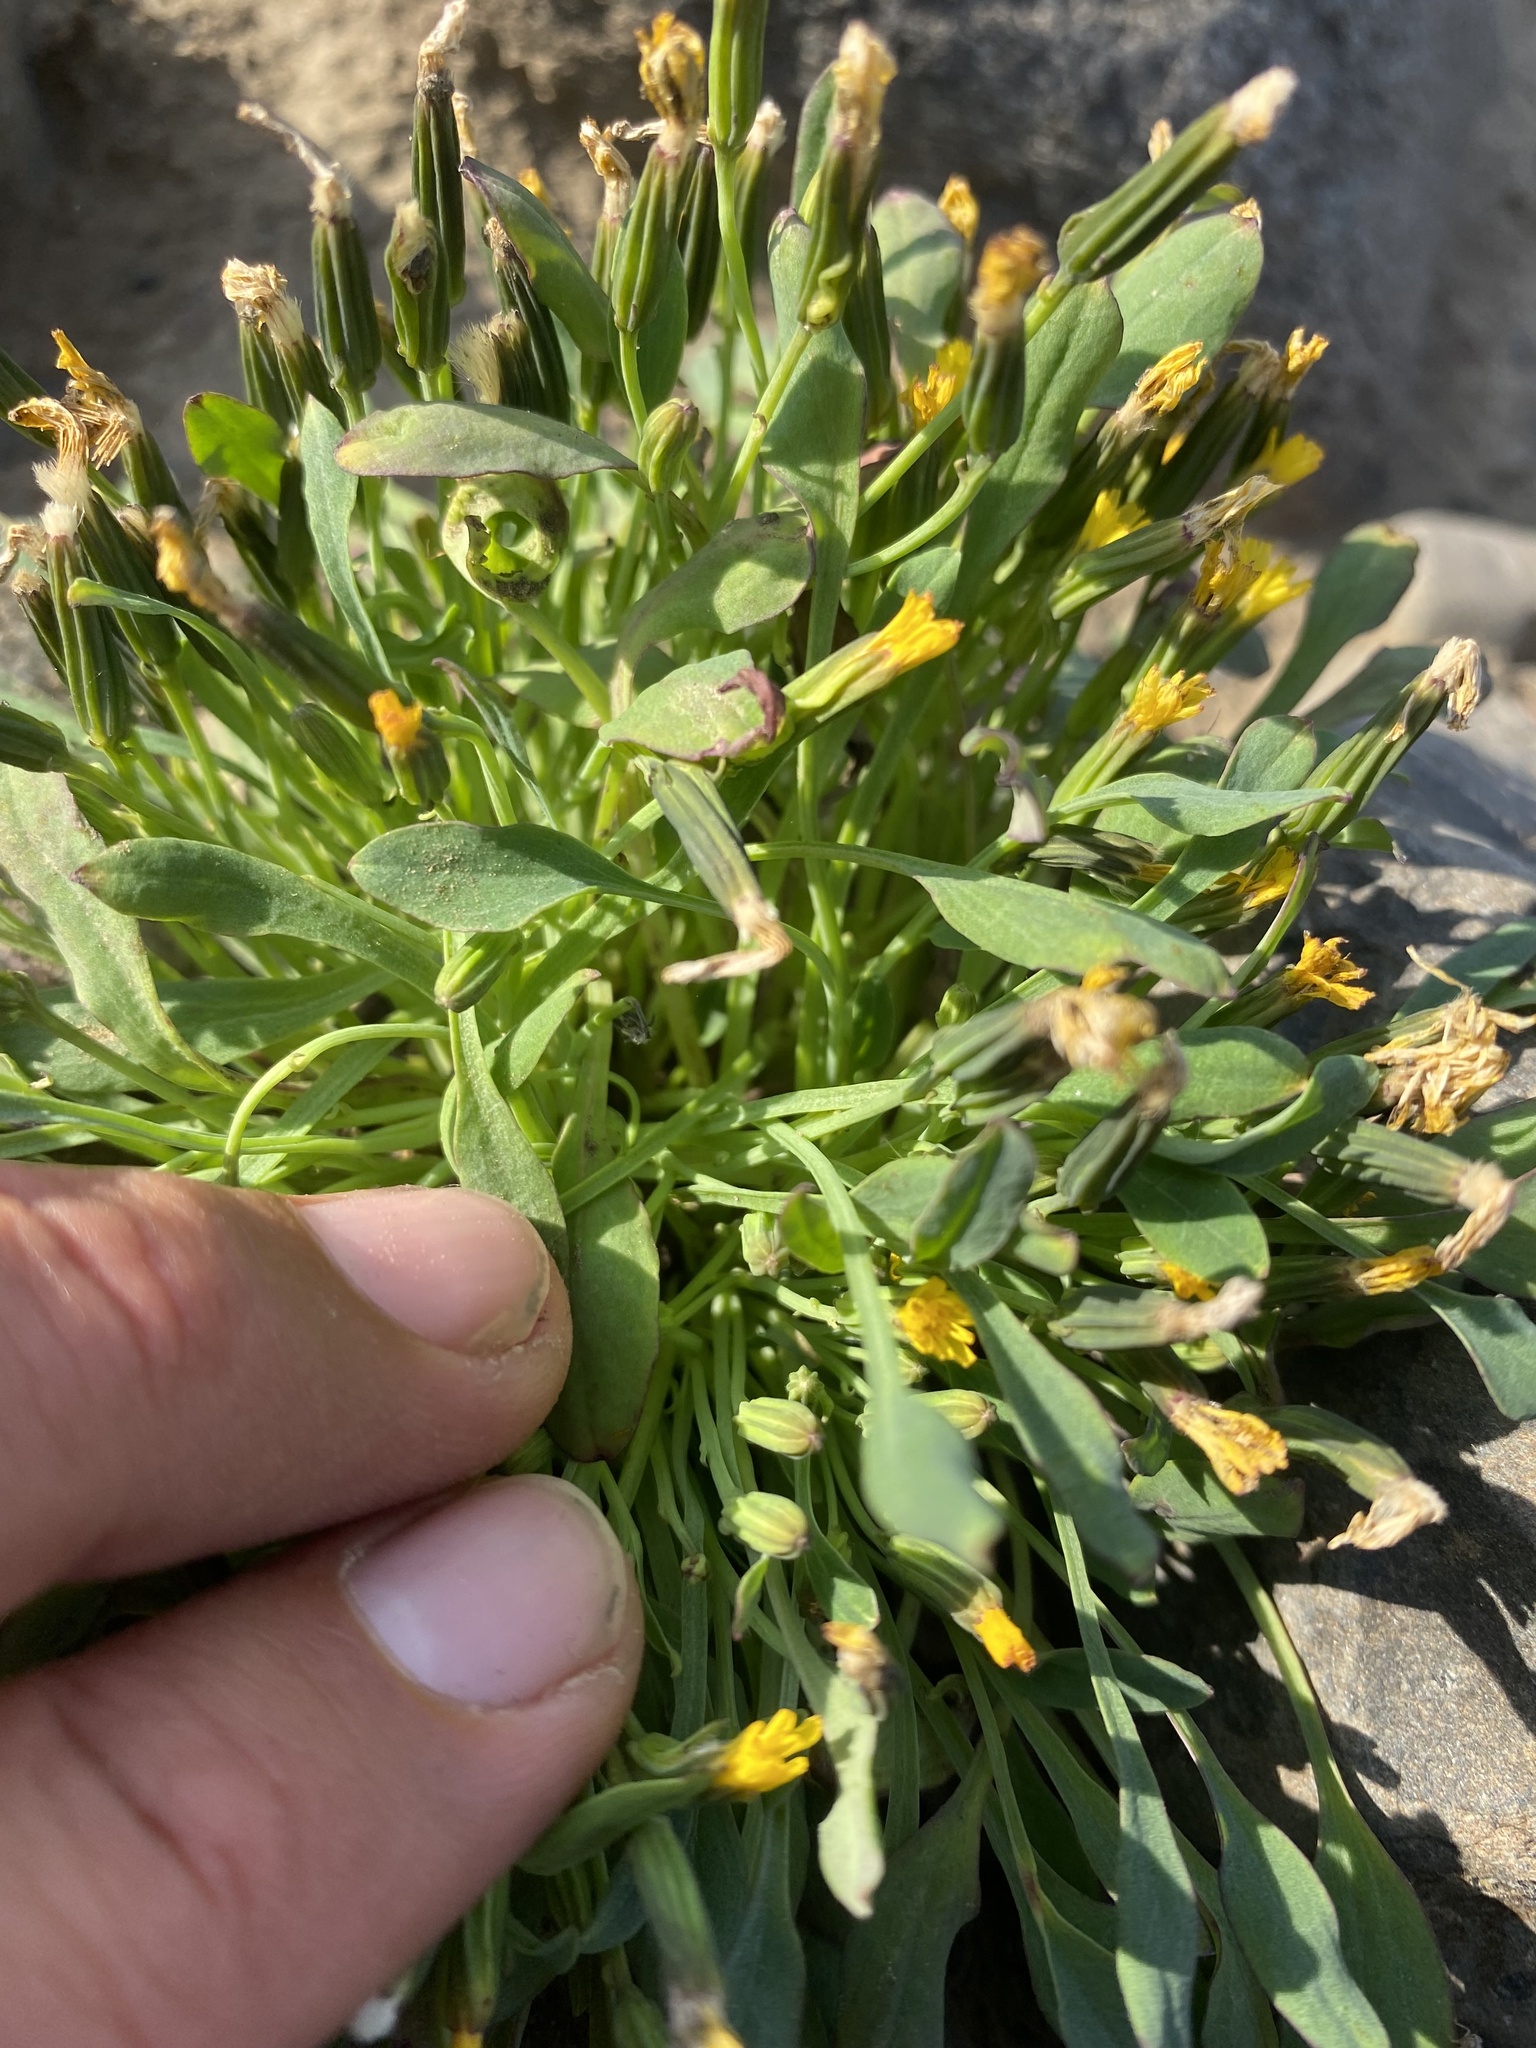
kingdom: Plantae
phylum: Tracheophyta
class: Magnoliopsida
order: Asterales
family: Asteraceae
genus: Askellia
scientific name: Askellia pygmaea
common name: Dwarf alpine hawksbeard
